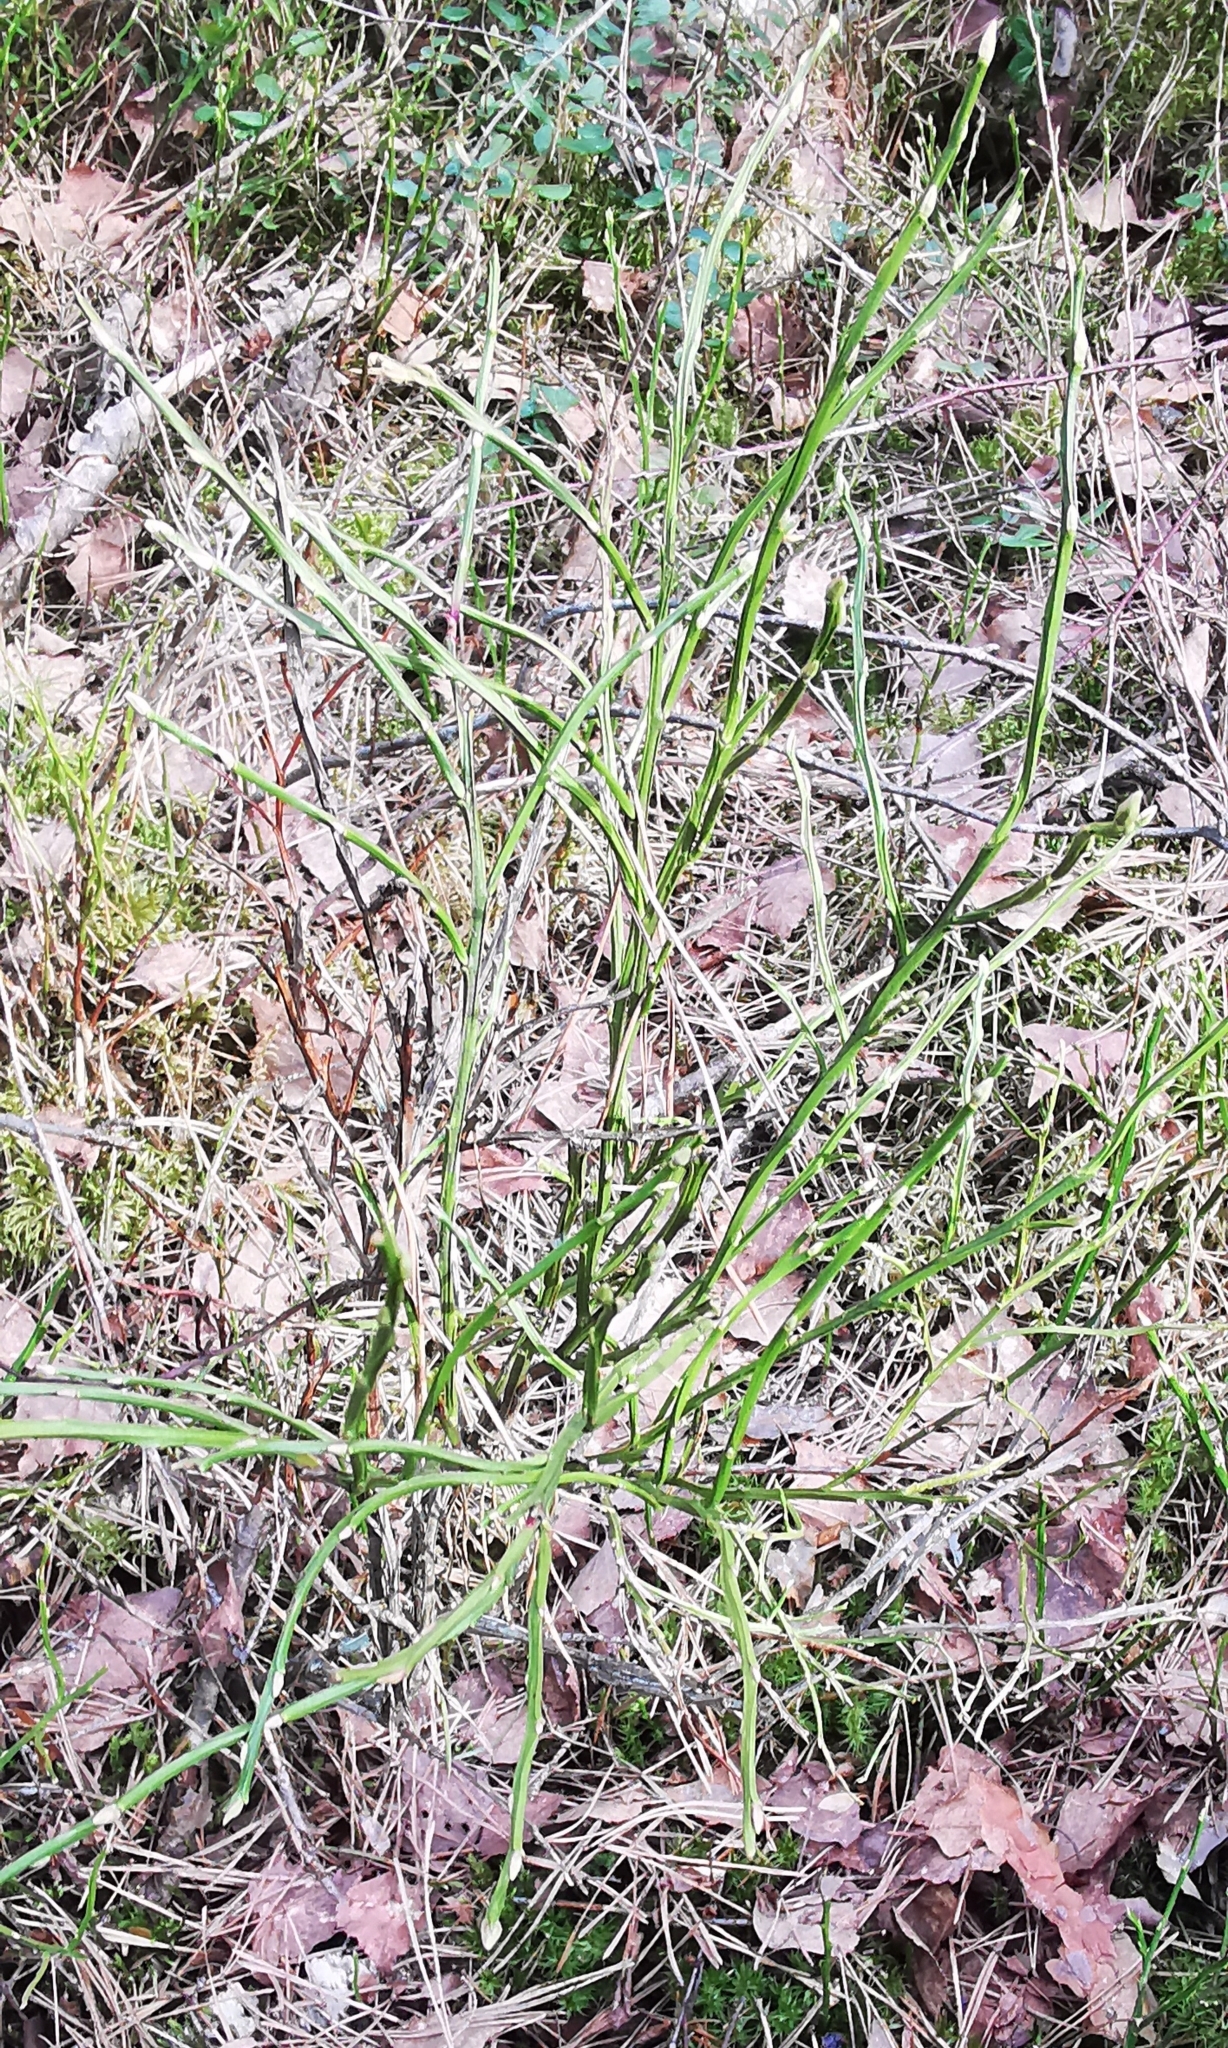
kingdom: Plantae
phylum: Tracheophyta
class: Magnoliopsida
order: Ericales
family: Ericaceae
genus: Vaccinium
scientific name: Vaccinium myrtillus
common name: Bilberry
